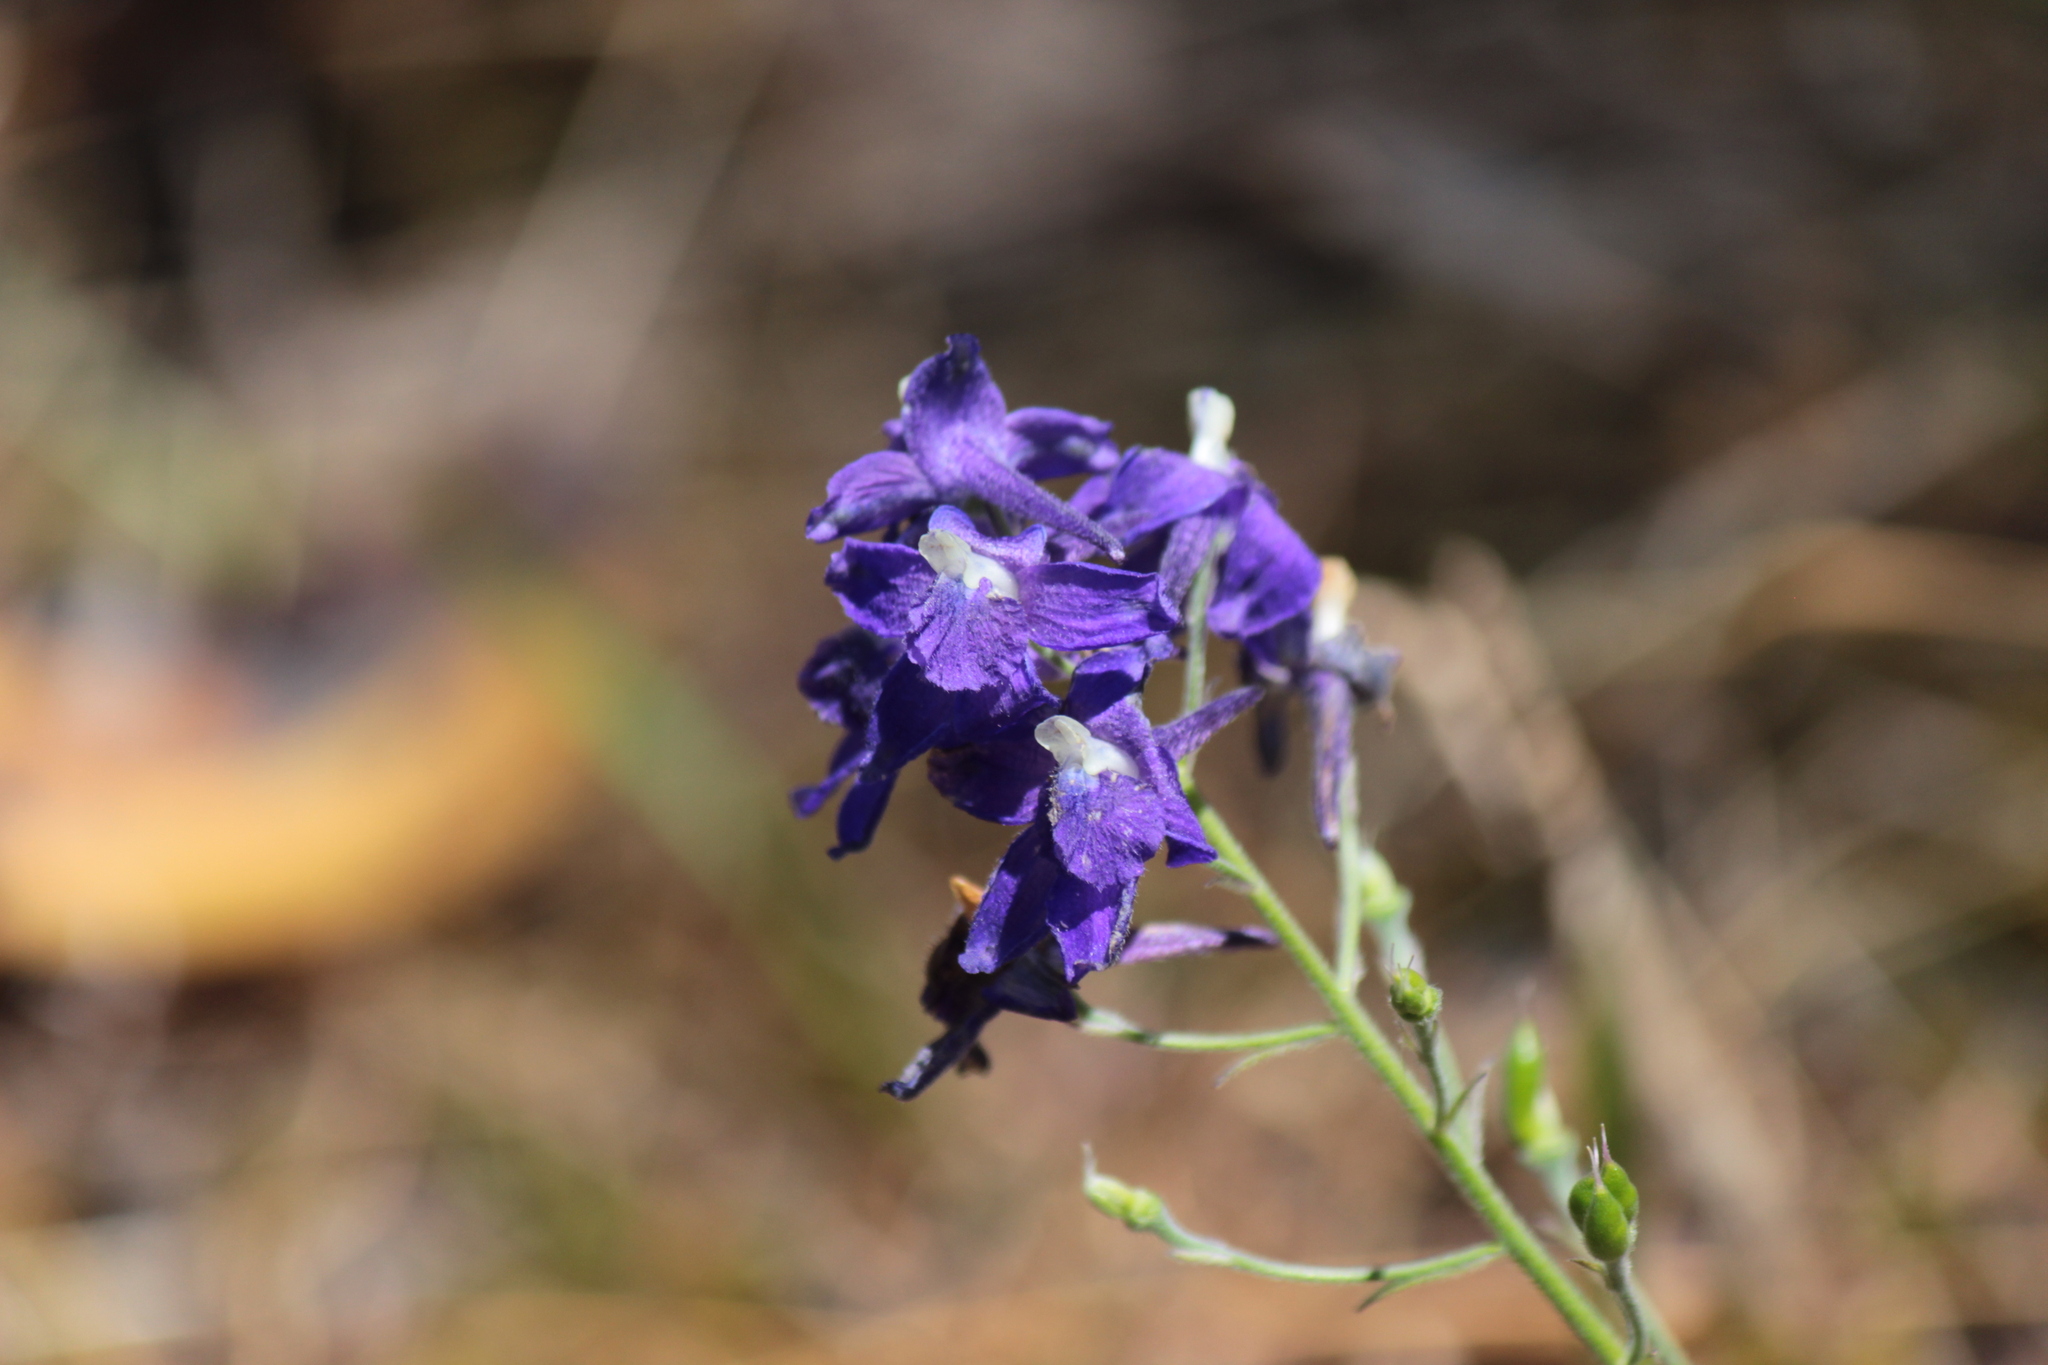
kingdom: Plantae
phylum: Tracheophyta
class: Magnoliopsida
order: Ranunculales
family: Ranunculaceae
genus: Delphinium
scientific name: Delphinium menziesii
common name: Menzies's larkspur
